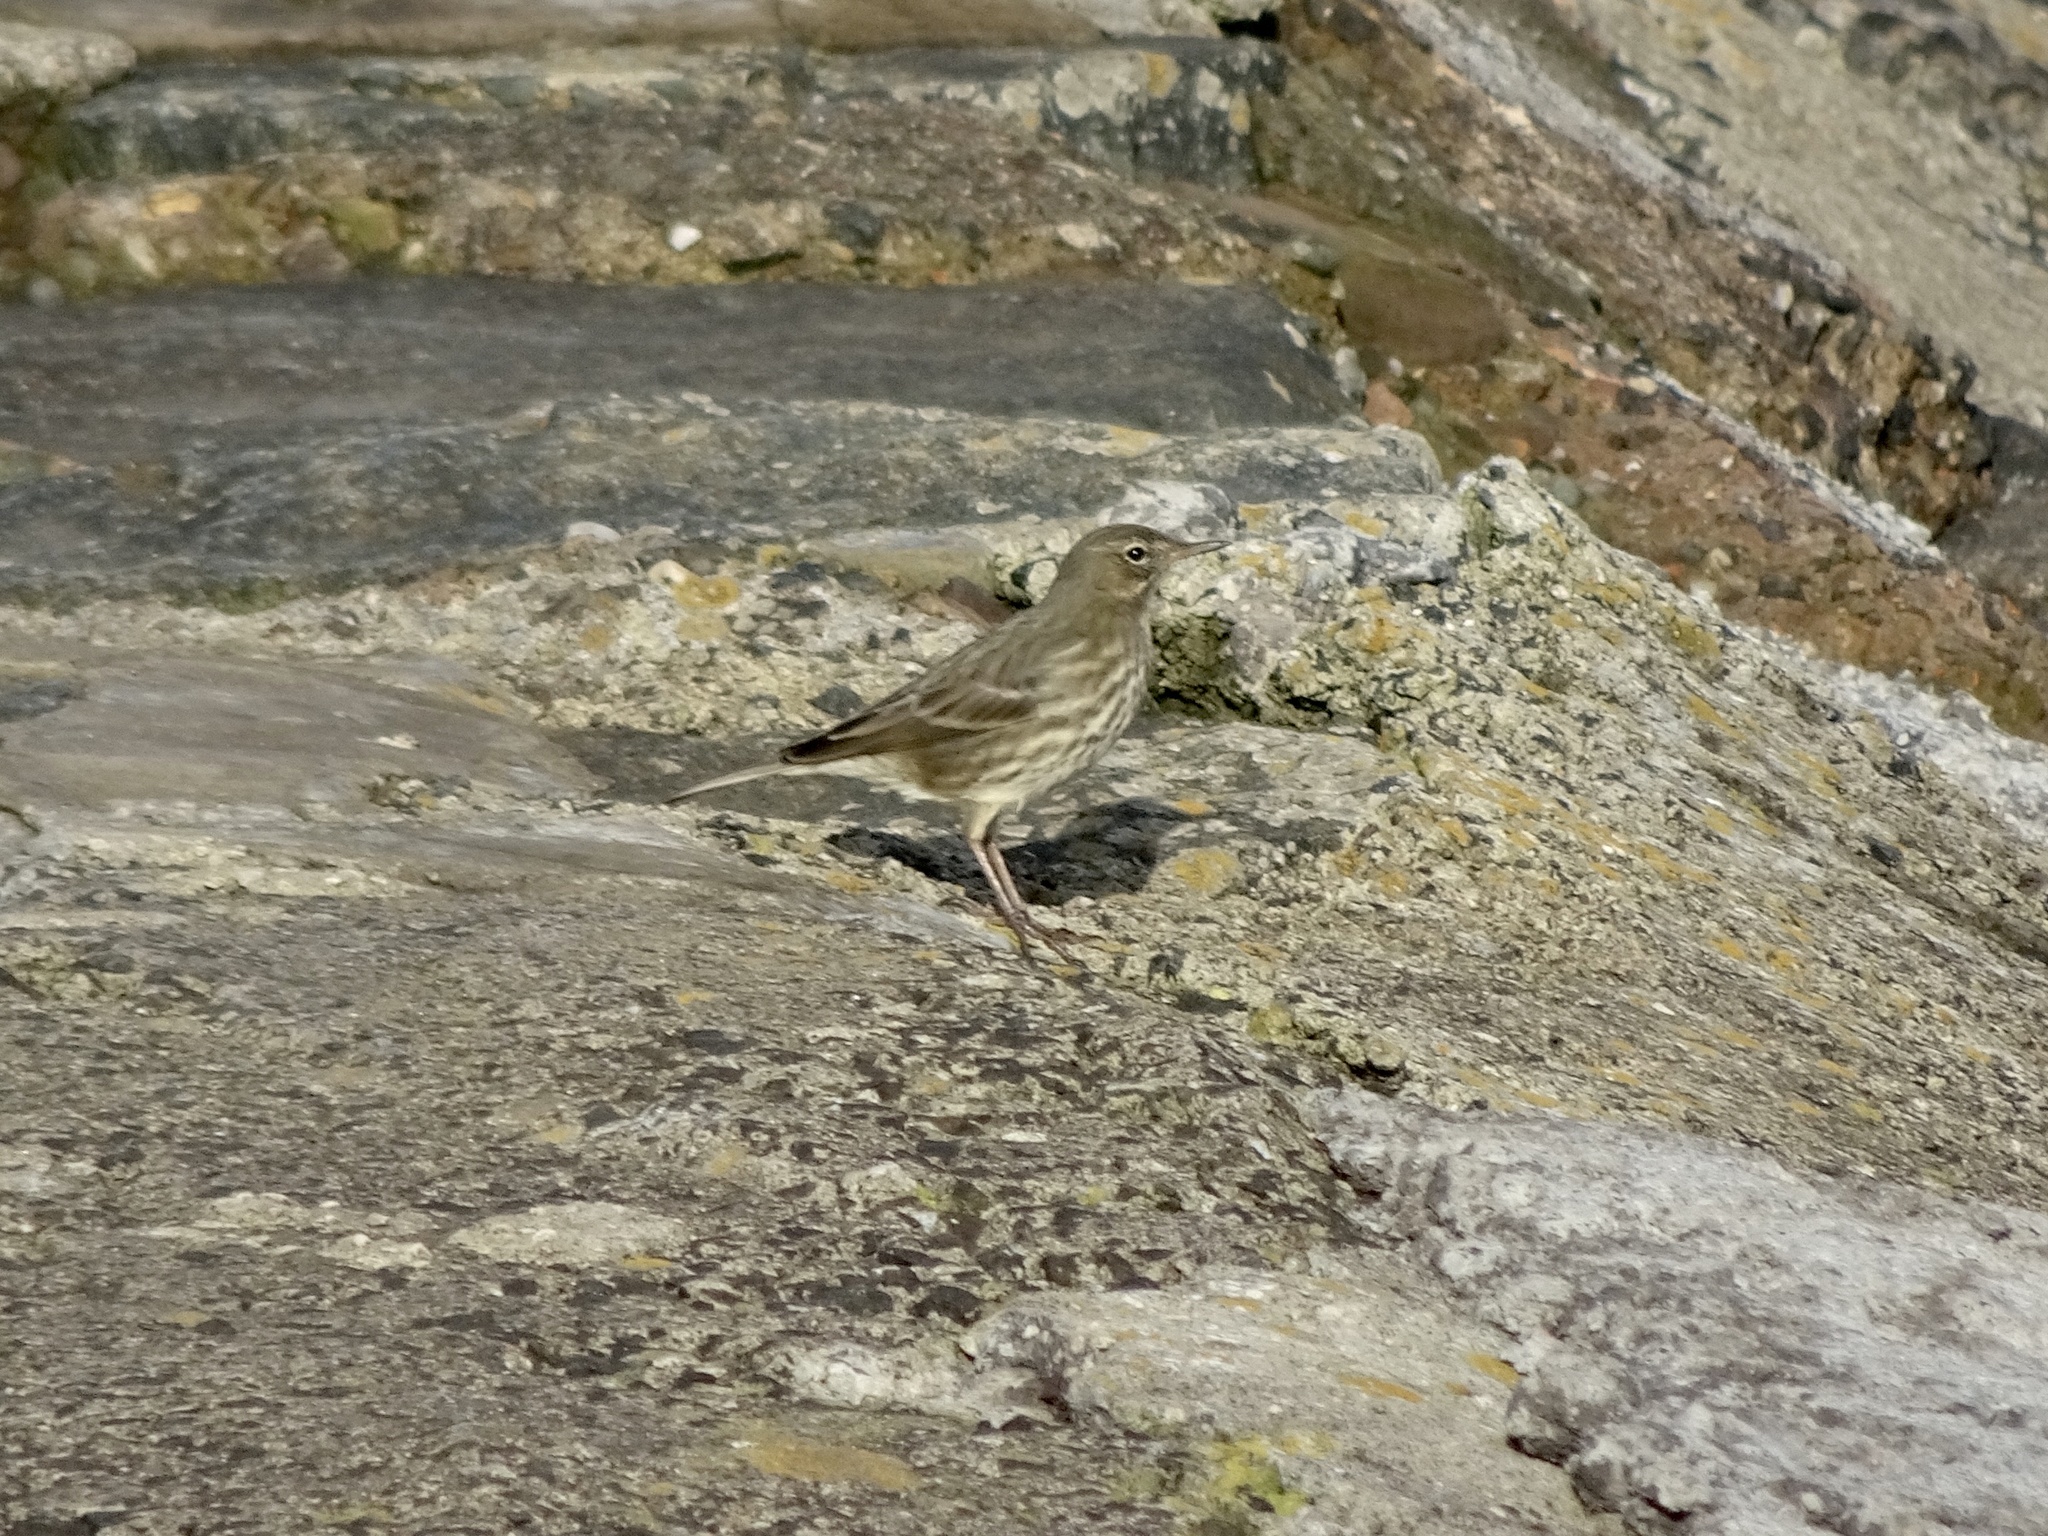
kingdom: Animalia
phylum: Chordata
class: Aves
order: Passeriformes
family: Motacillidae
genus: Anthus
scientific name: Anthus petrosus
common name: Eurasian rock pipit
